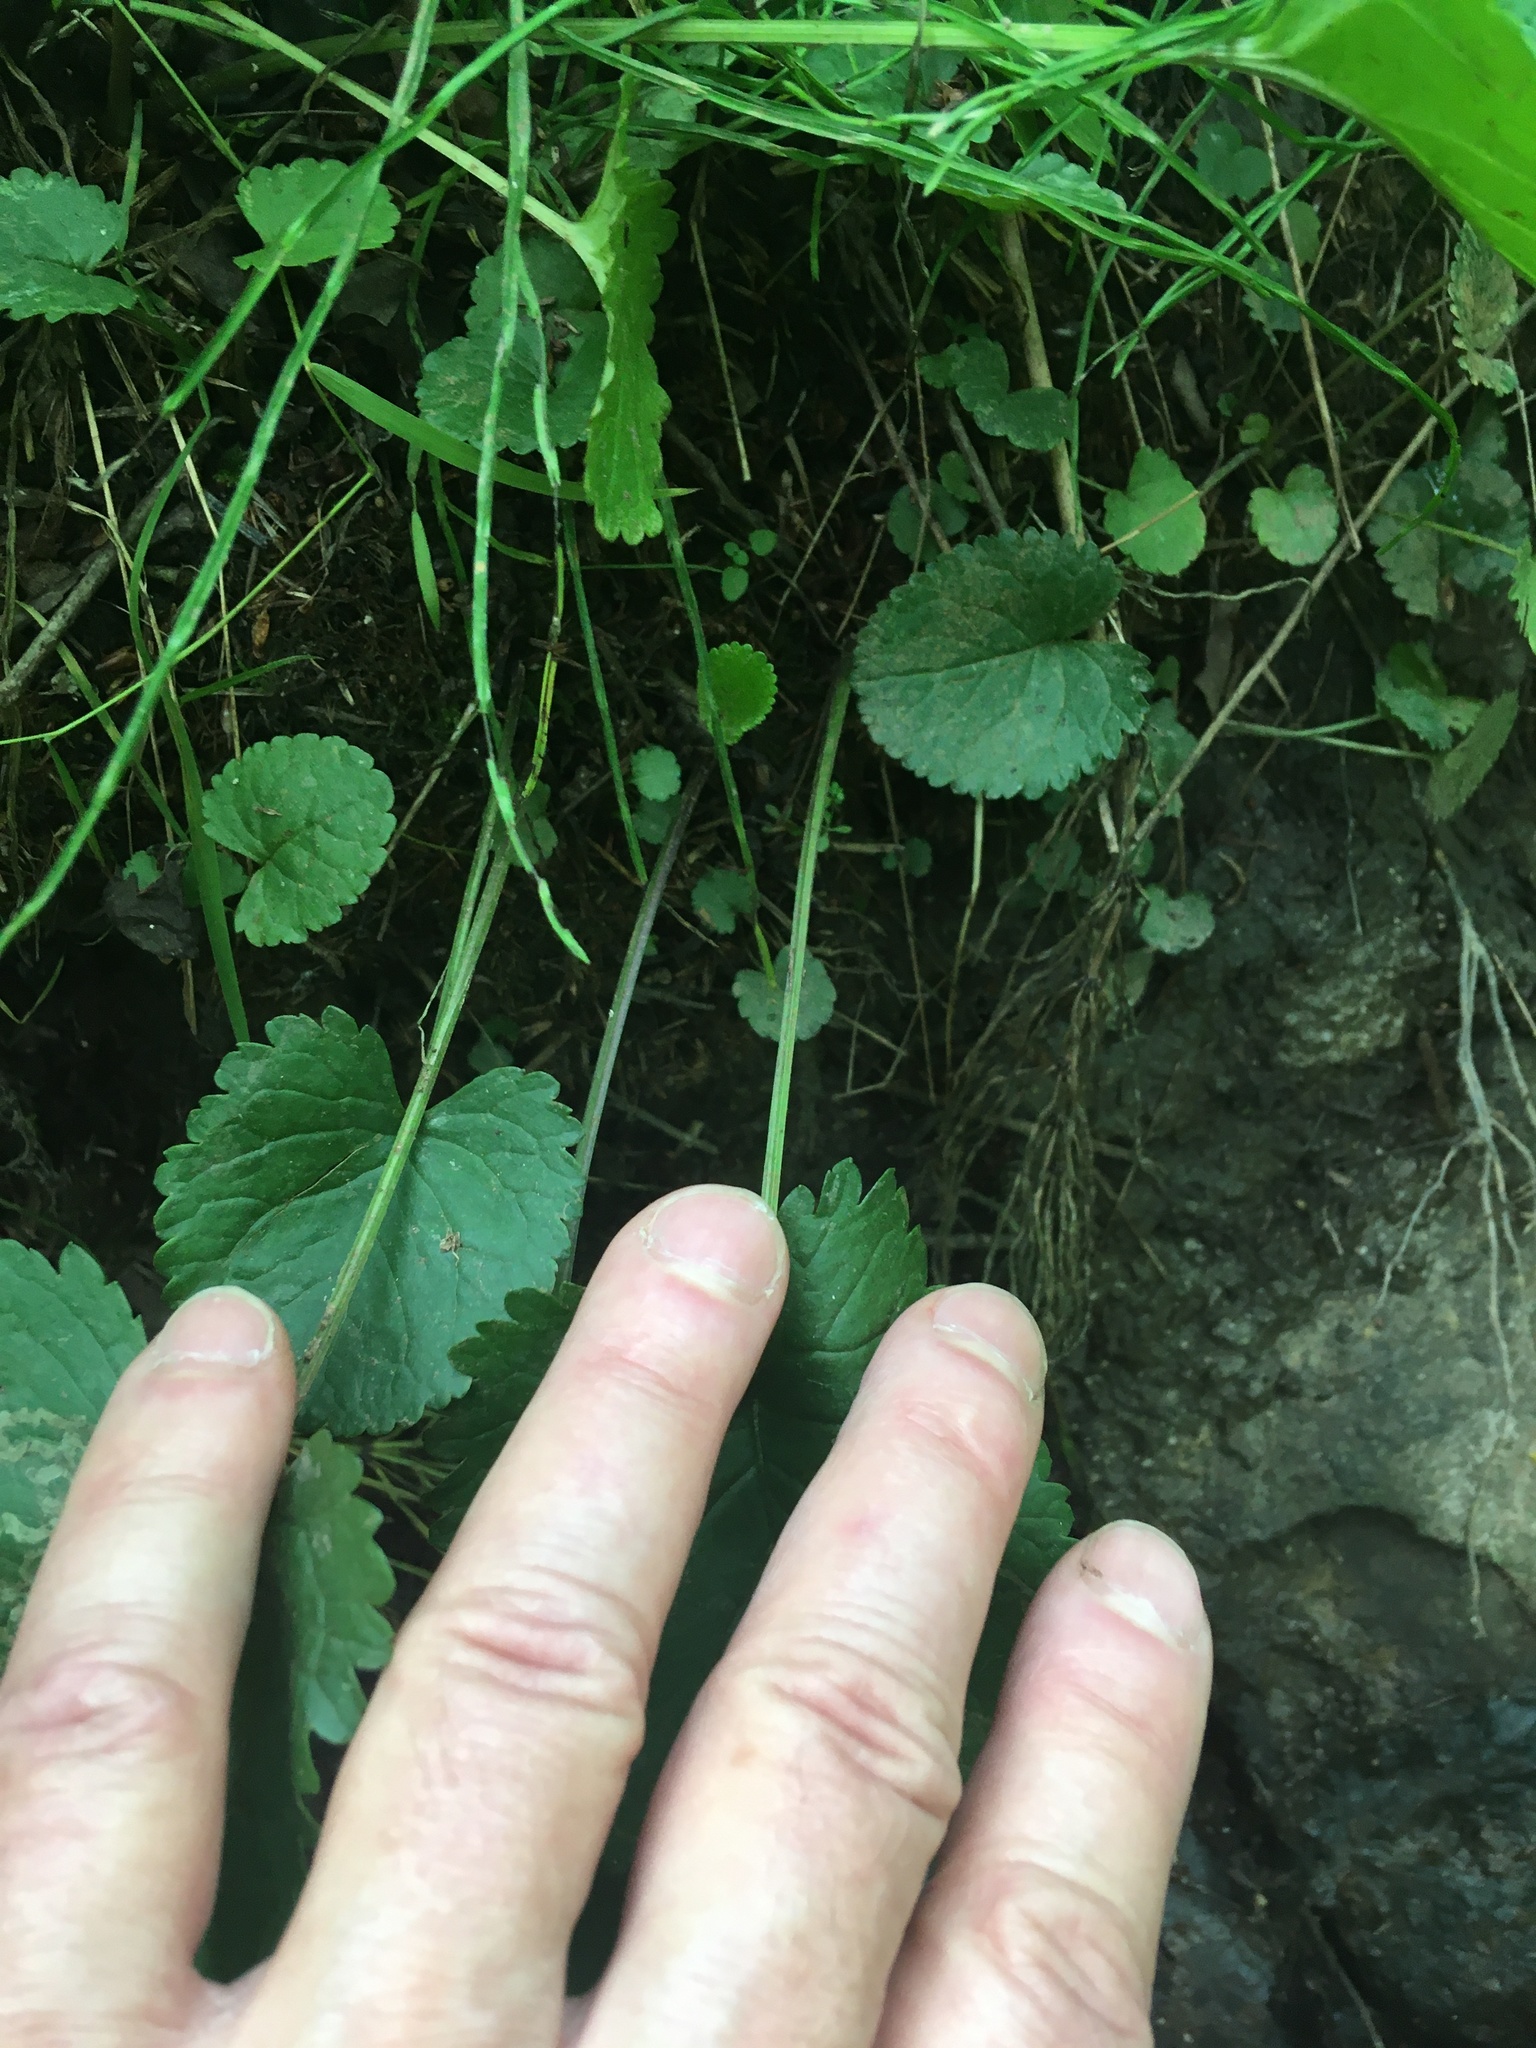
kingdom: Plantae
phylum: Tracheophyta
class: Magnoliopsida
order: Asterales
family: Asteraceae
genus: Packera
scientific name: Packera aurea
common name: Golden groundsel
